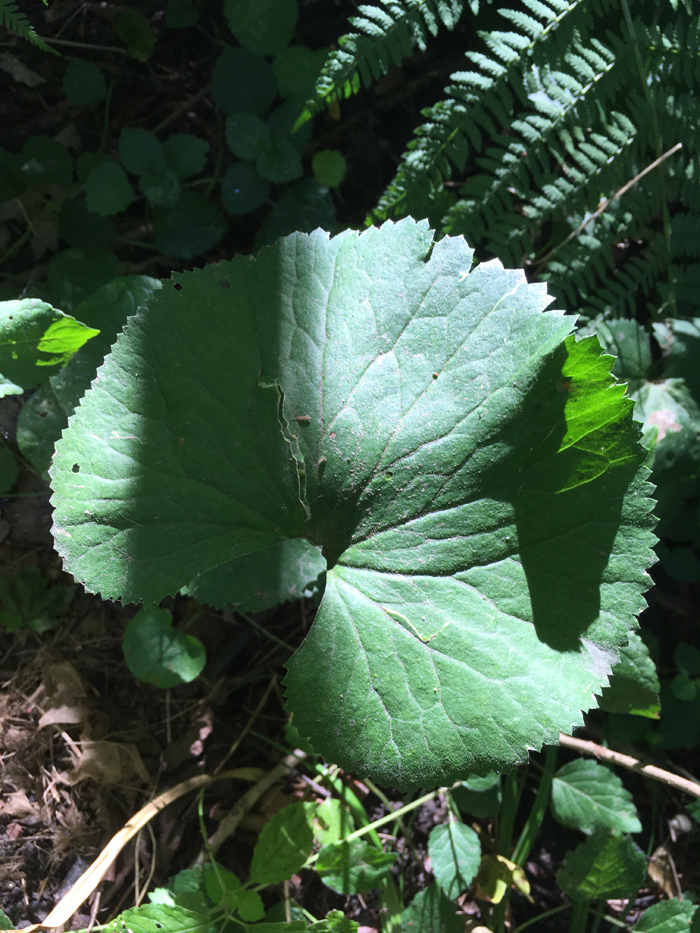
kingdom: Plantae
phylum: Tracheophyta
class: Magnoliopsida
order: Ranunculales
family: Ranunculaceae
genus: Ranunculus
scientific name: Ranunculus cassubicus
